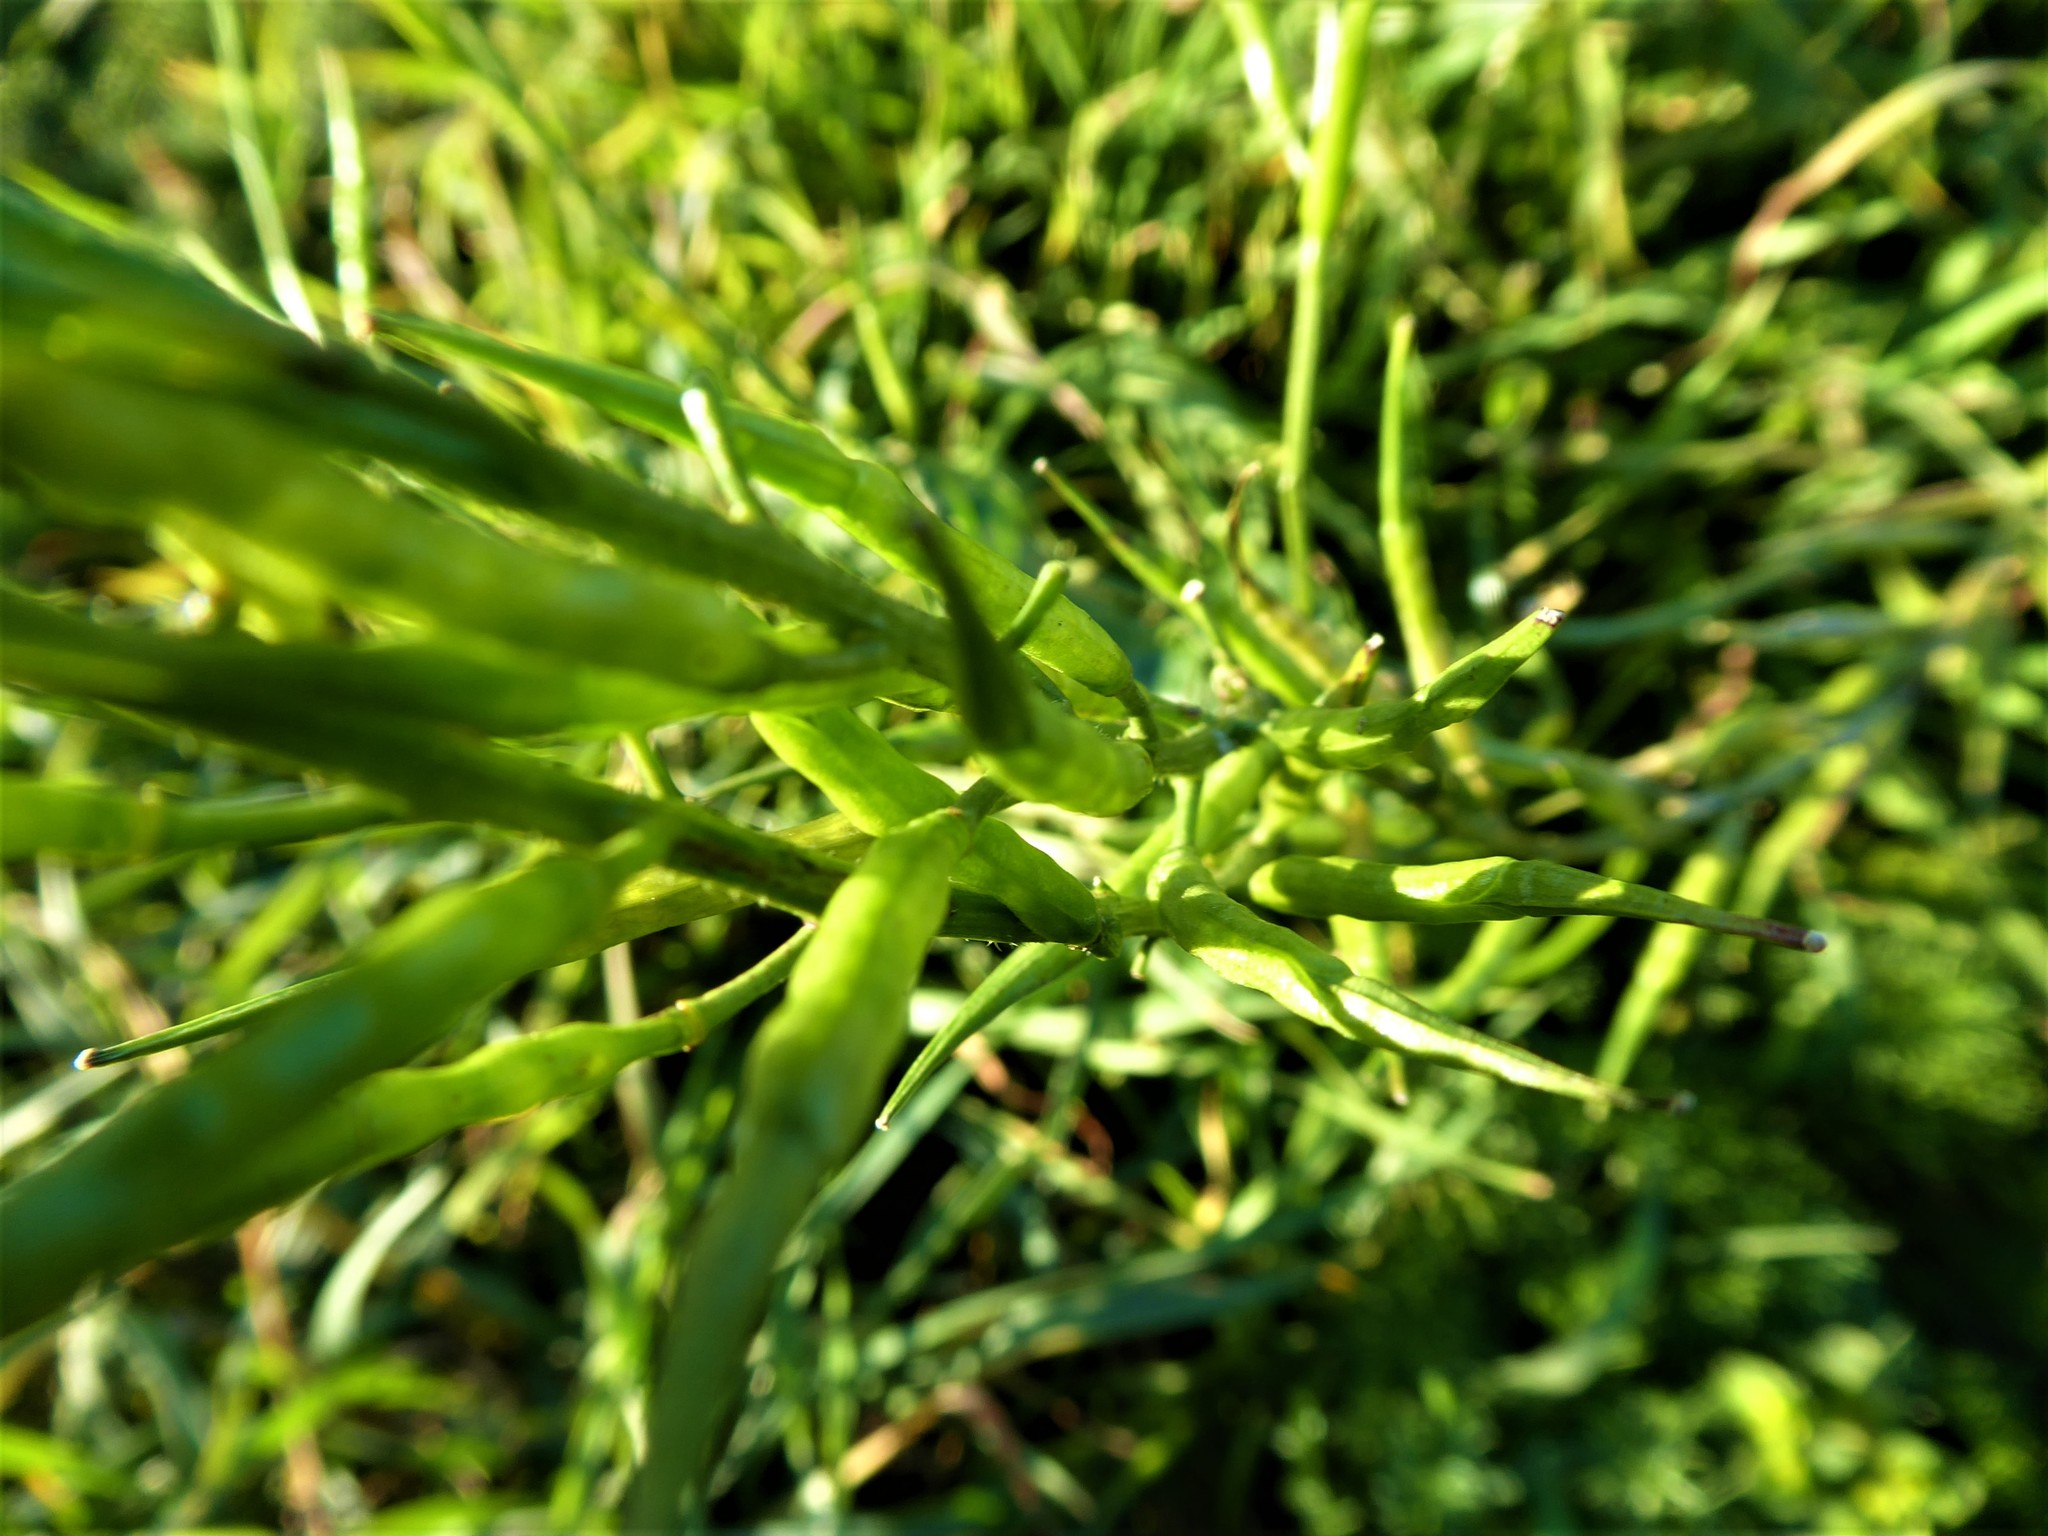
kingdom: Plantae
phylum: Tracheophyta
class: Magnoliopsida
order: Brassicales
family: Brassicaceae
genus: Sinapis
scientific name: Sinapis arvensis
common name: Charlock
